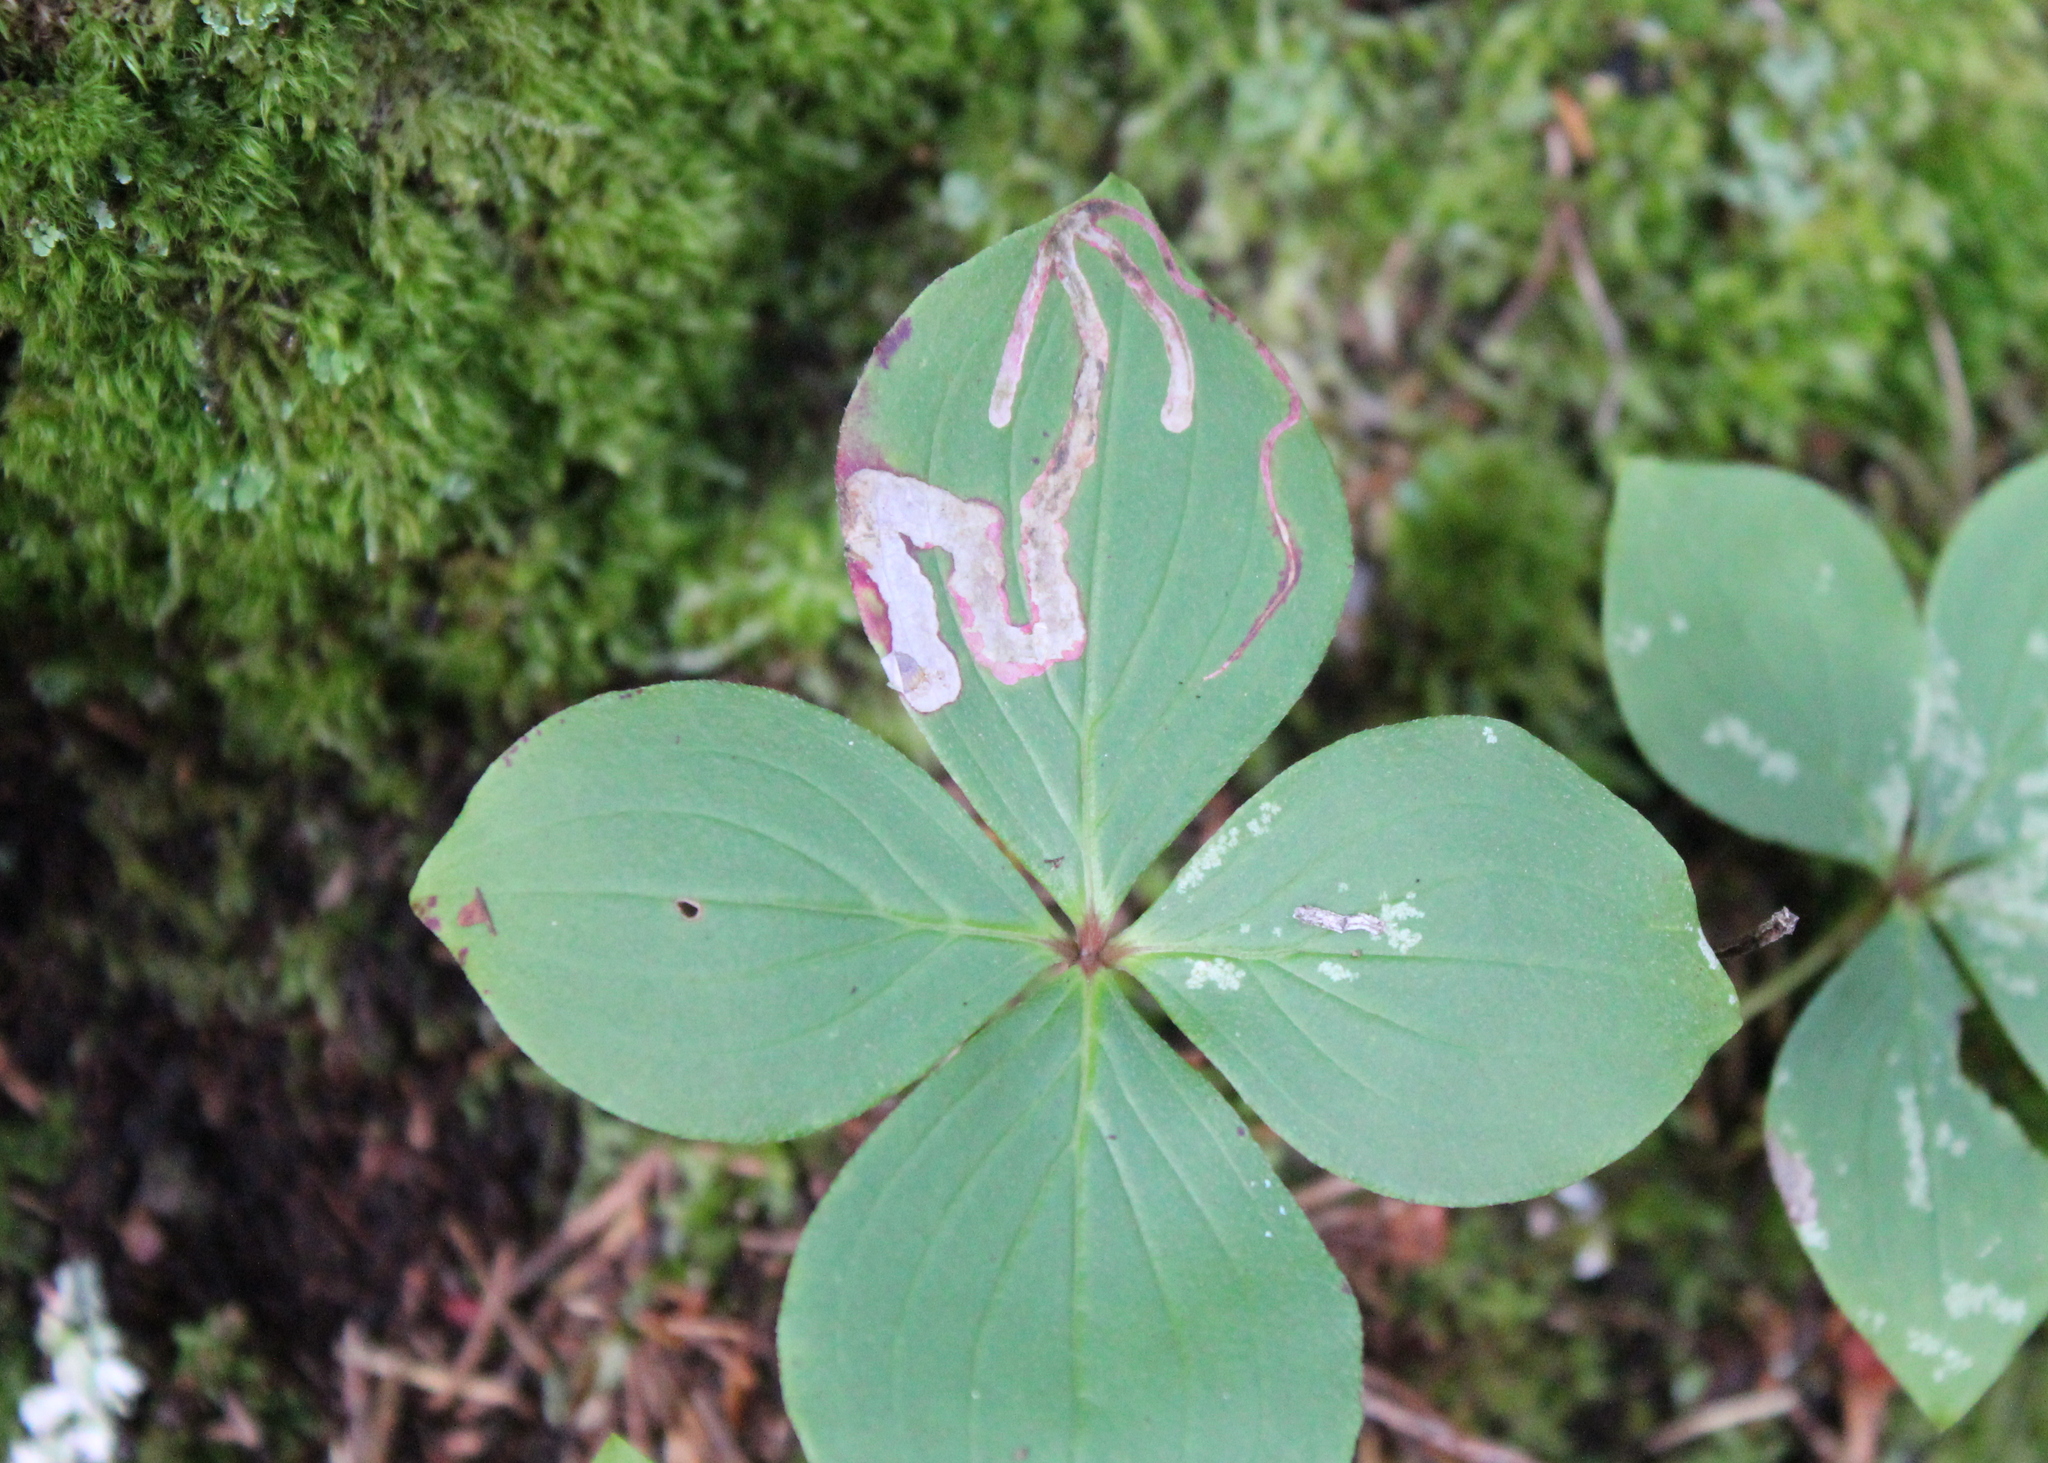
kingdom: Animalia
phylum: Arthropoda
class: Insecta
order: Diptera
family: Agromyzidae
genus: Phytomyza
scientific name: Phytomyza agromyzina
